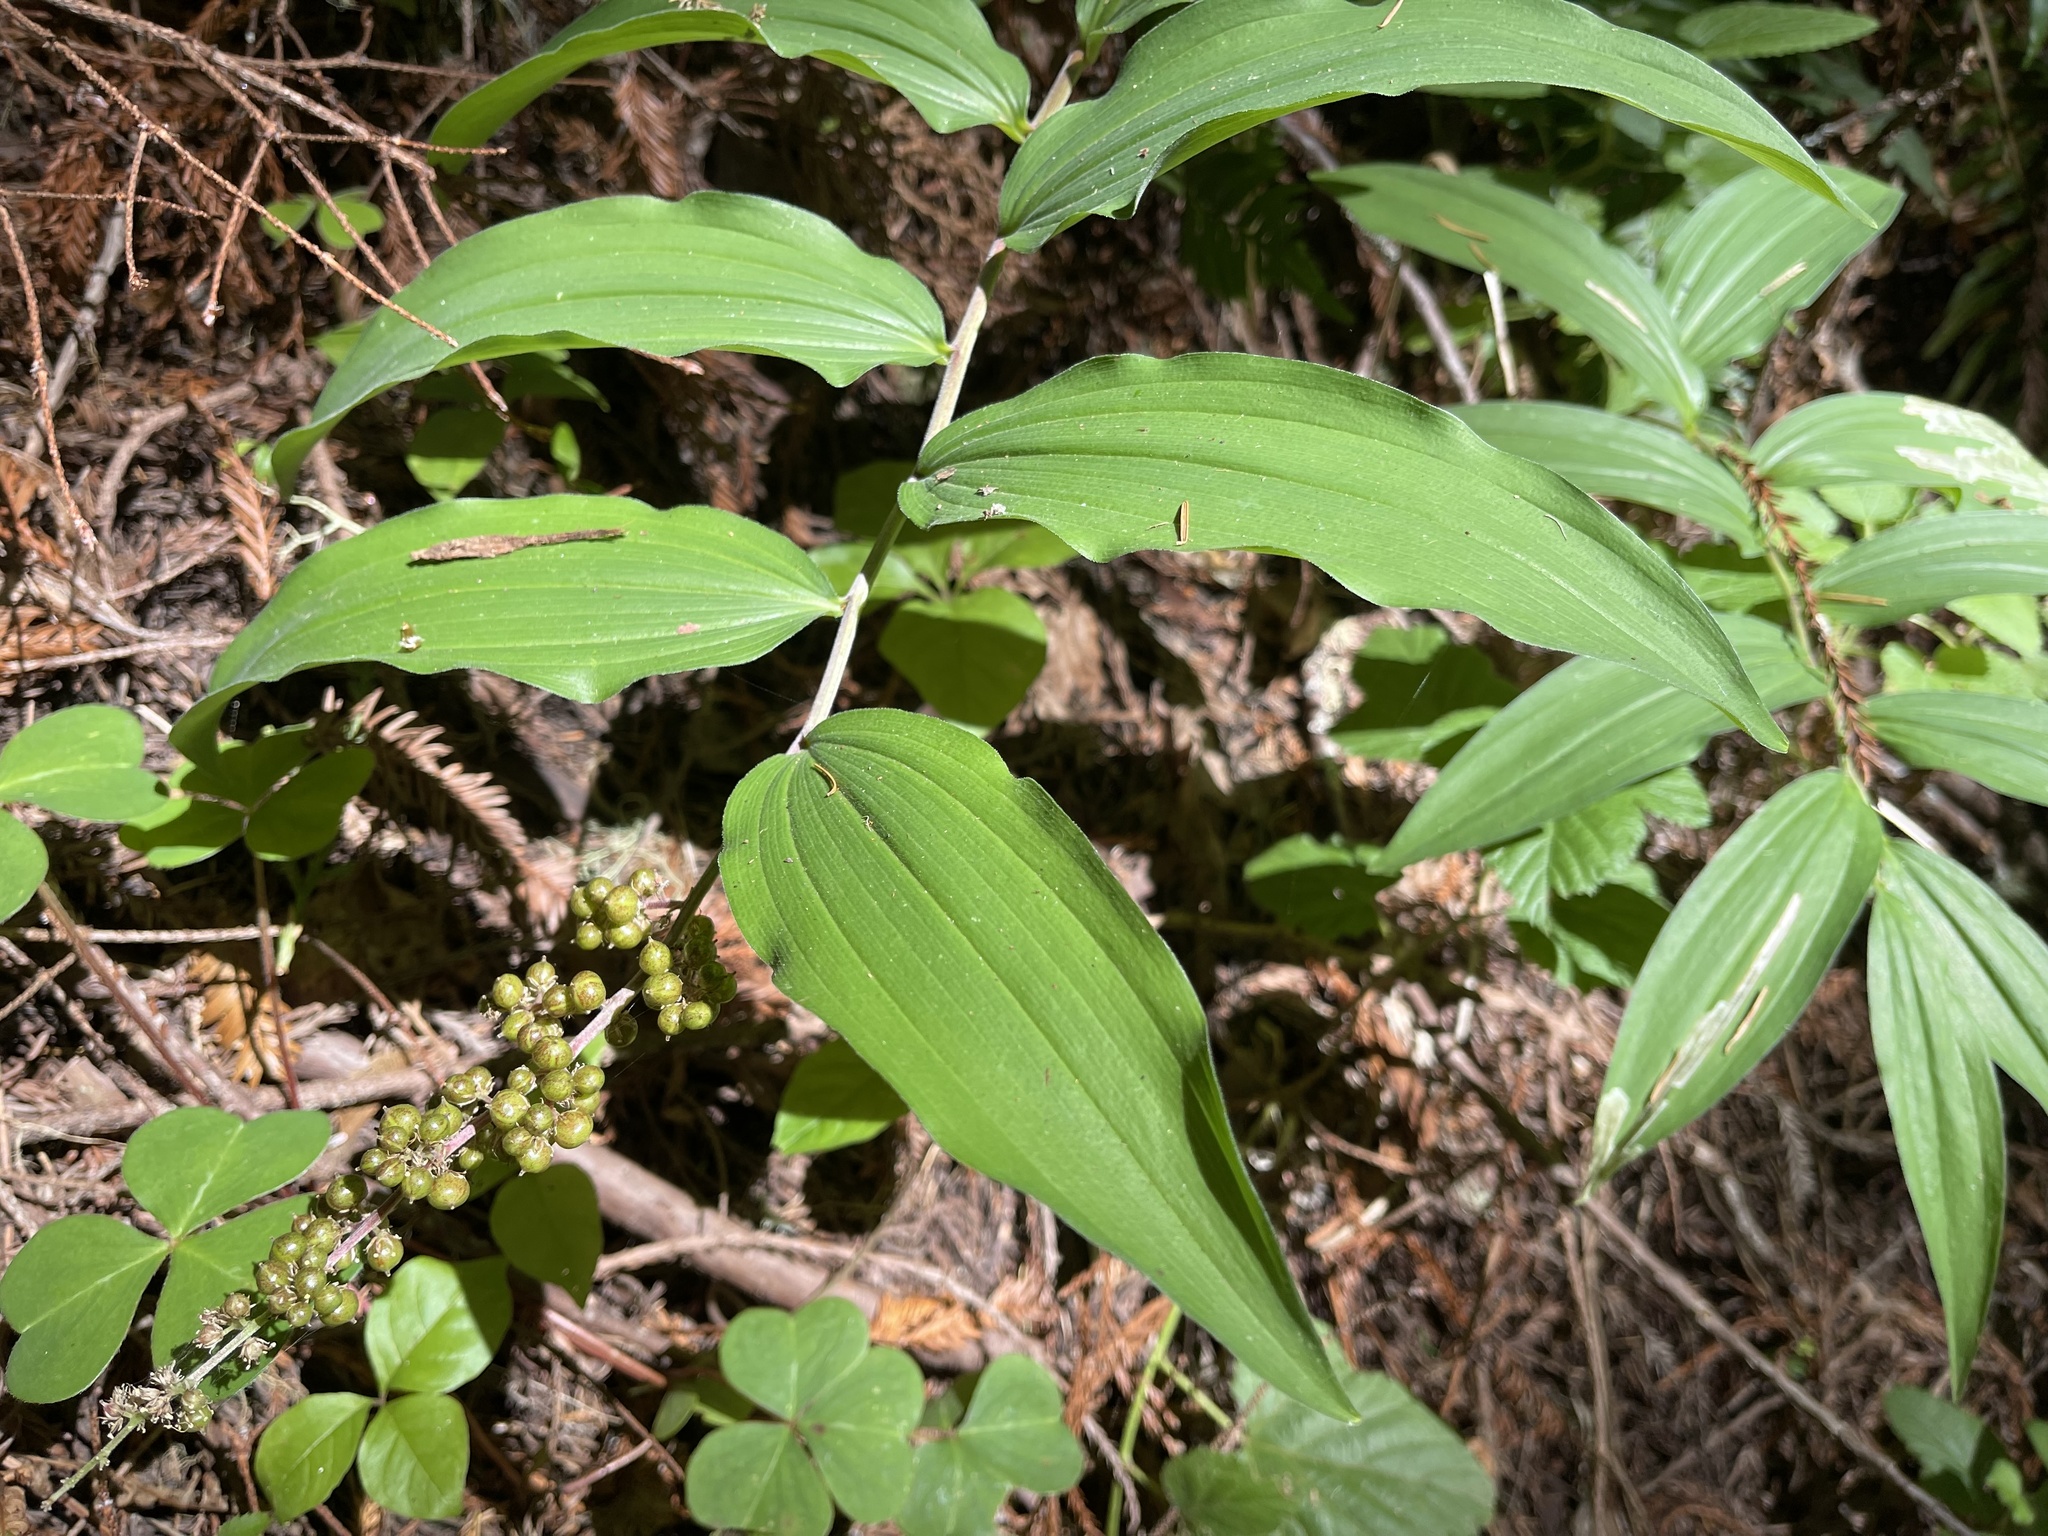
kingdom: Plantae
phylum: Tracheophyta
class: Liliopsida
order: Asparagales
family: Asparagaceae
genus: Maianthemum
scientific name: Maianthemum racemosum
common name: False spikenard
